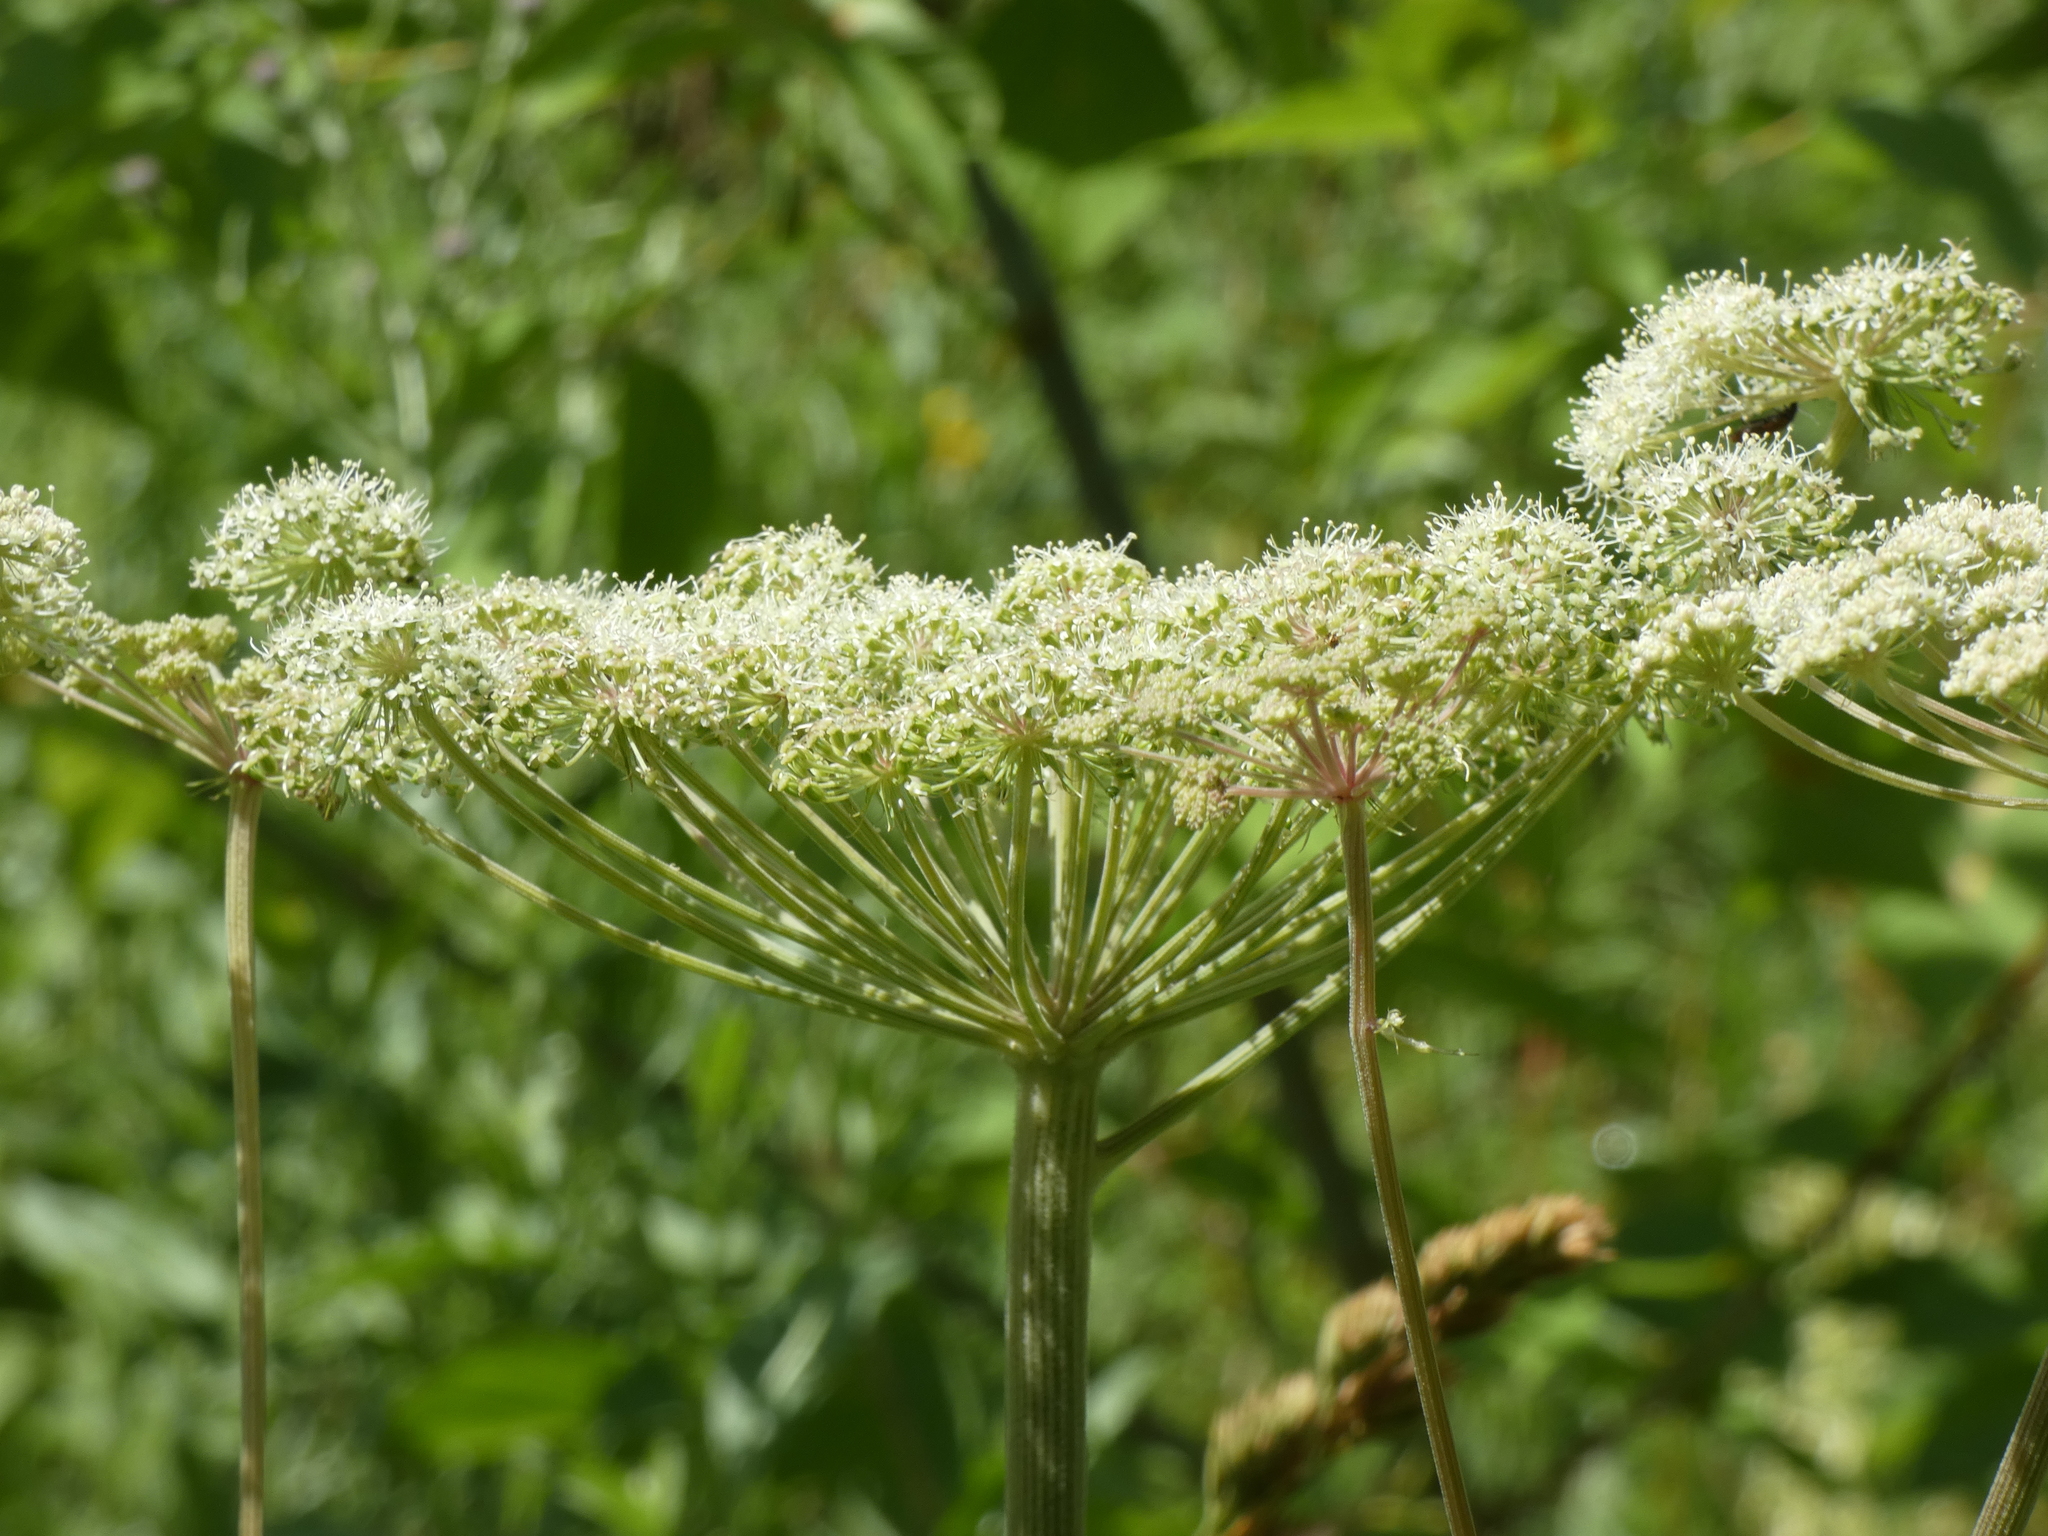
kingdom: Plantae
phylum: Tracheophyta
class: Magnoliopsida
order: Apiales
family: Apiaceae
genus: Angelica
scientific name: Angelica sylvestris
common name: Wild angelica
